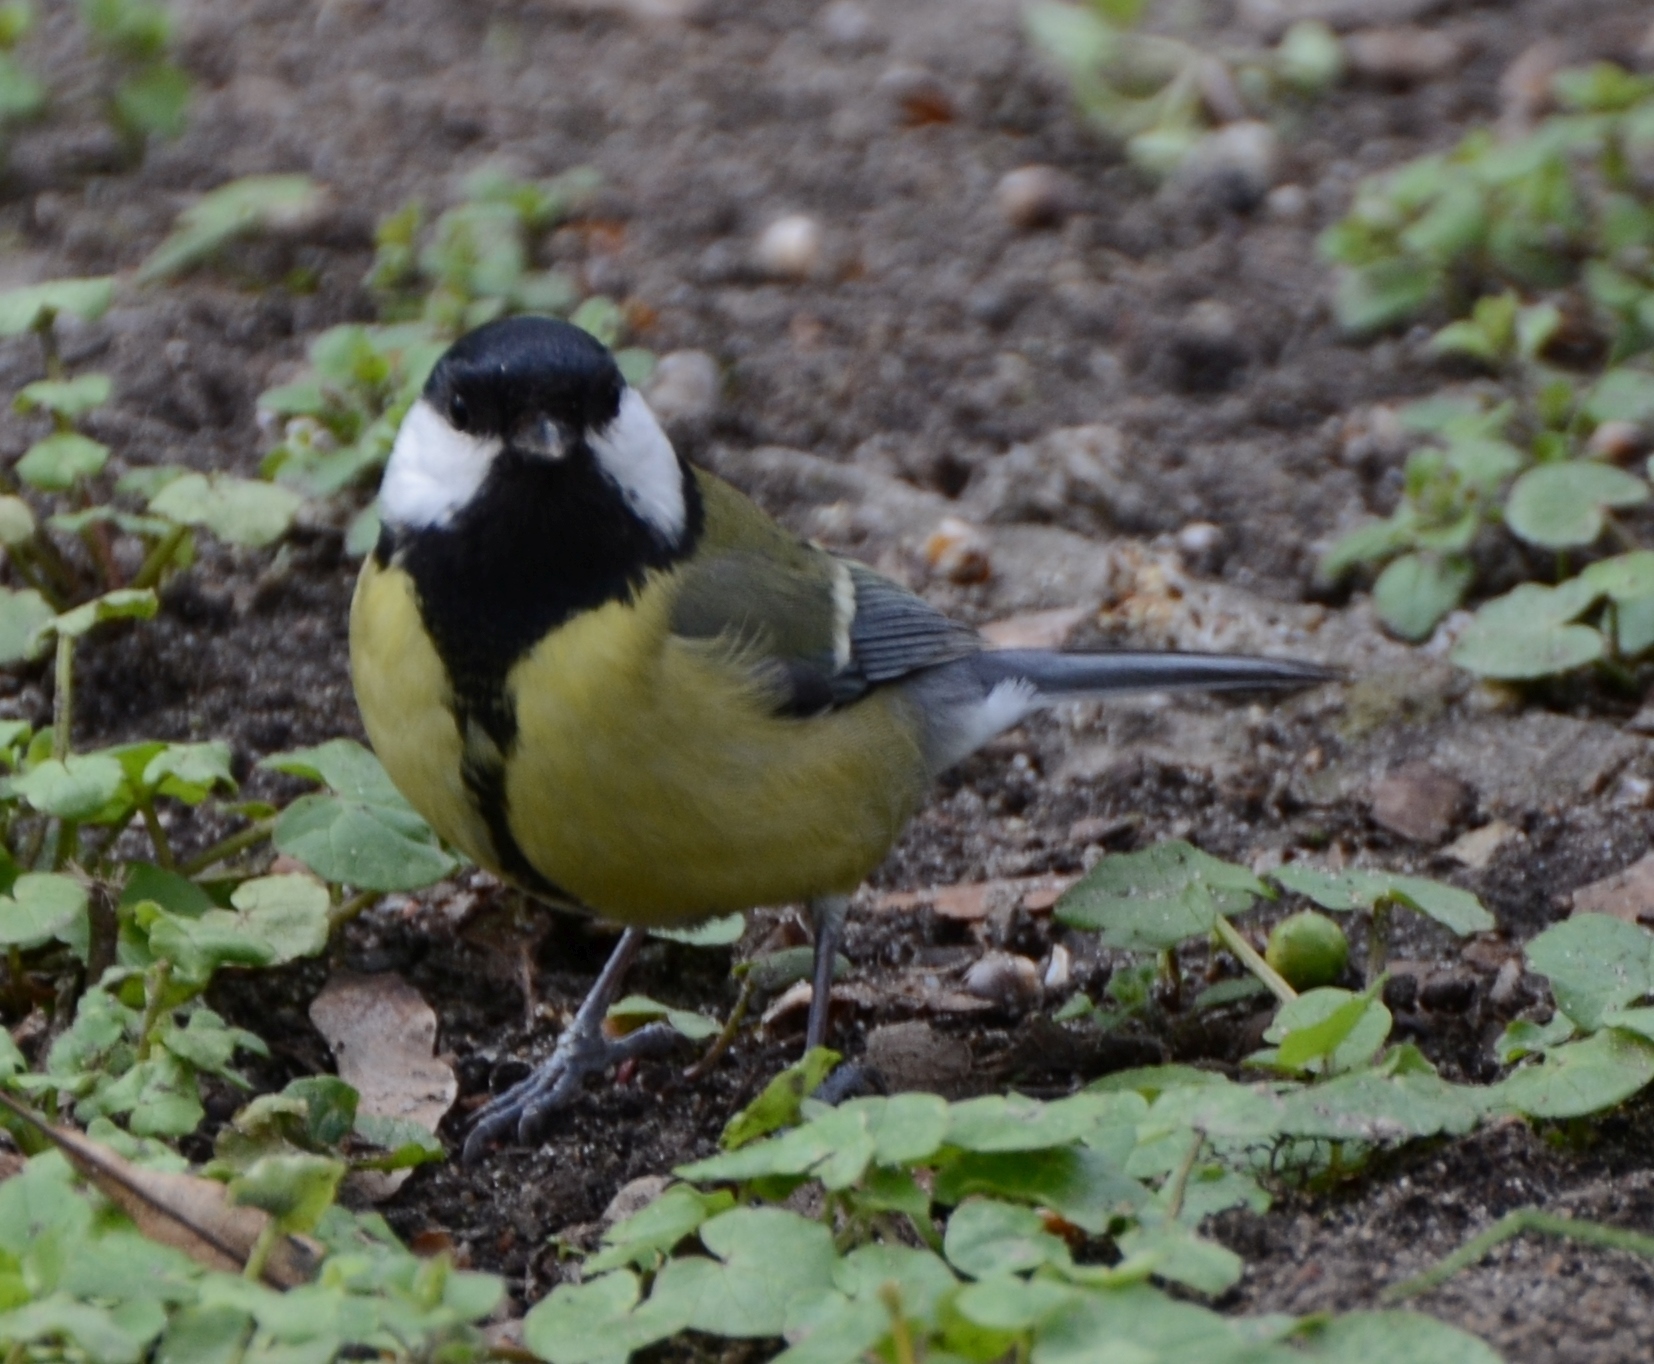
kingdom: Animalia
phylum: Chordata
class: Aves
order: Passeriformes
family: Paridae
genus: Parus
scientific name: Parus major
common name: Great tit
